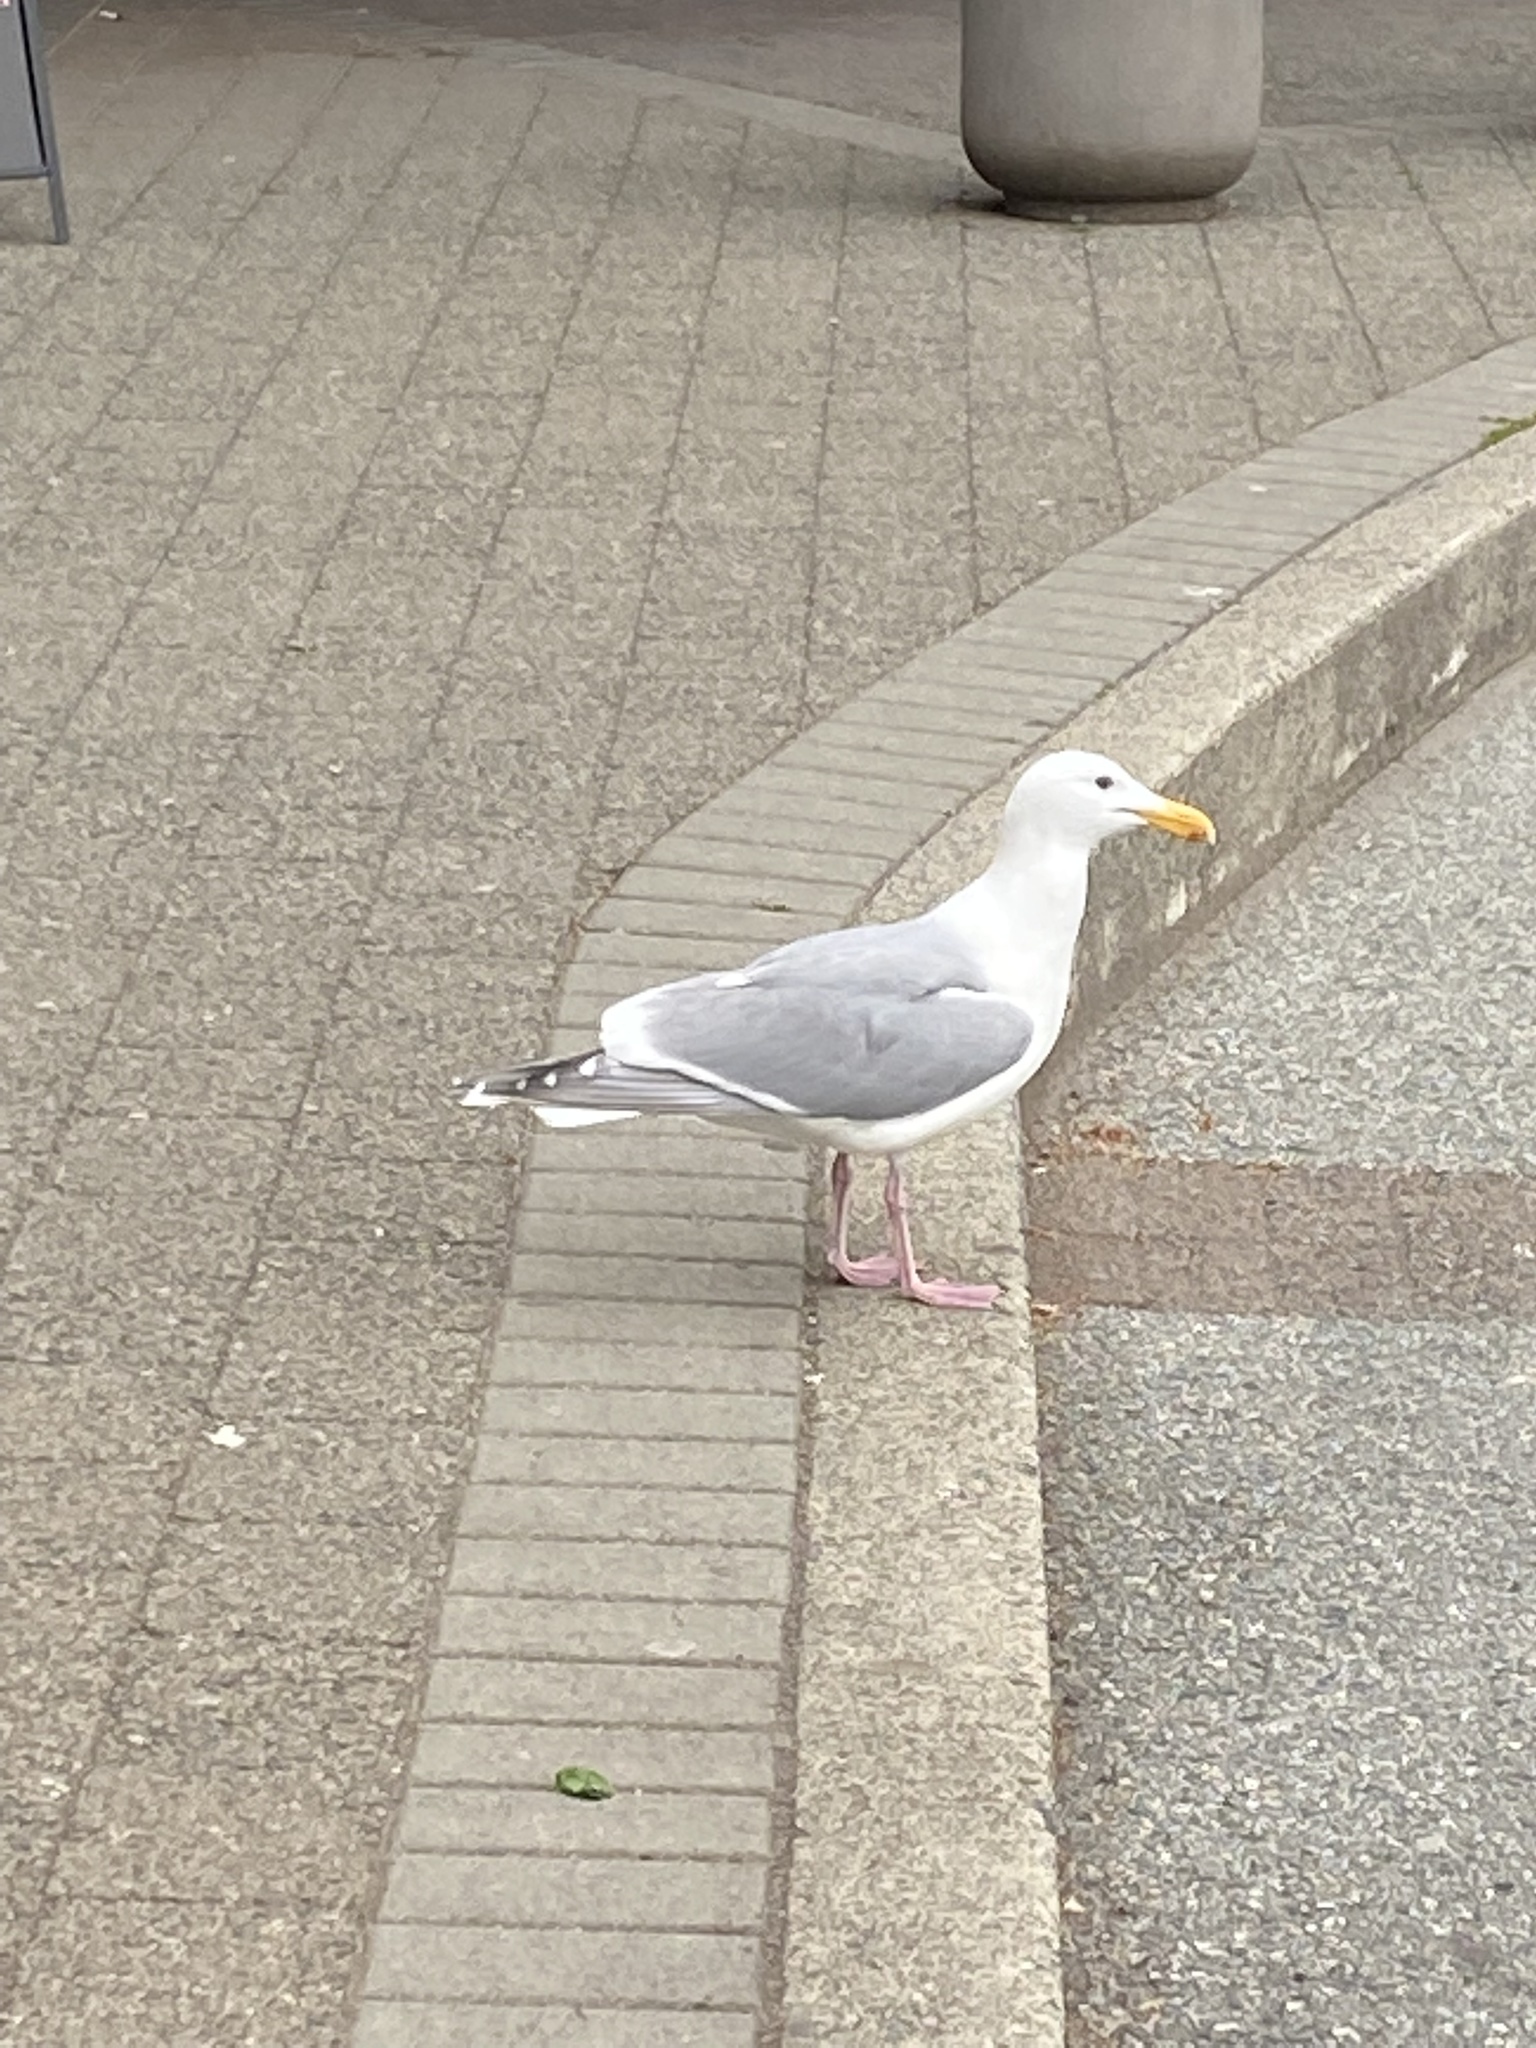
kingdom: Animalia
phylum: Chordata
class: Aves
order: Charadriiformes
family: Laridae
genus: Larus
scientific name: Larus glaucescens
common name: Glaucous-winged gull
